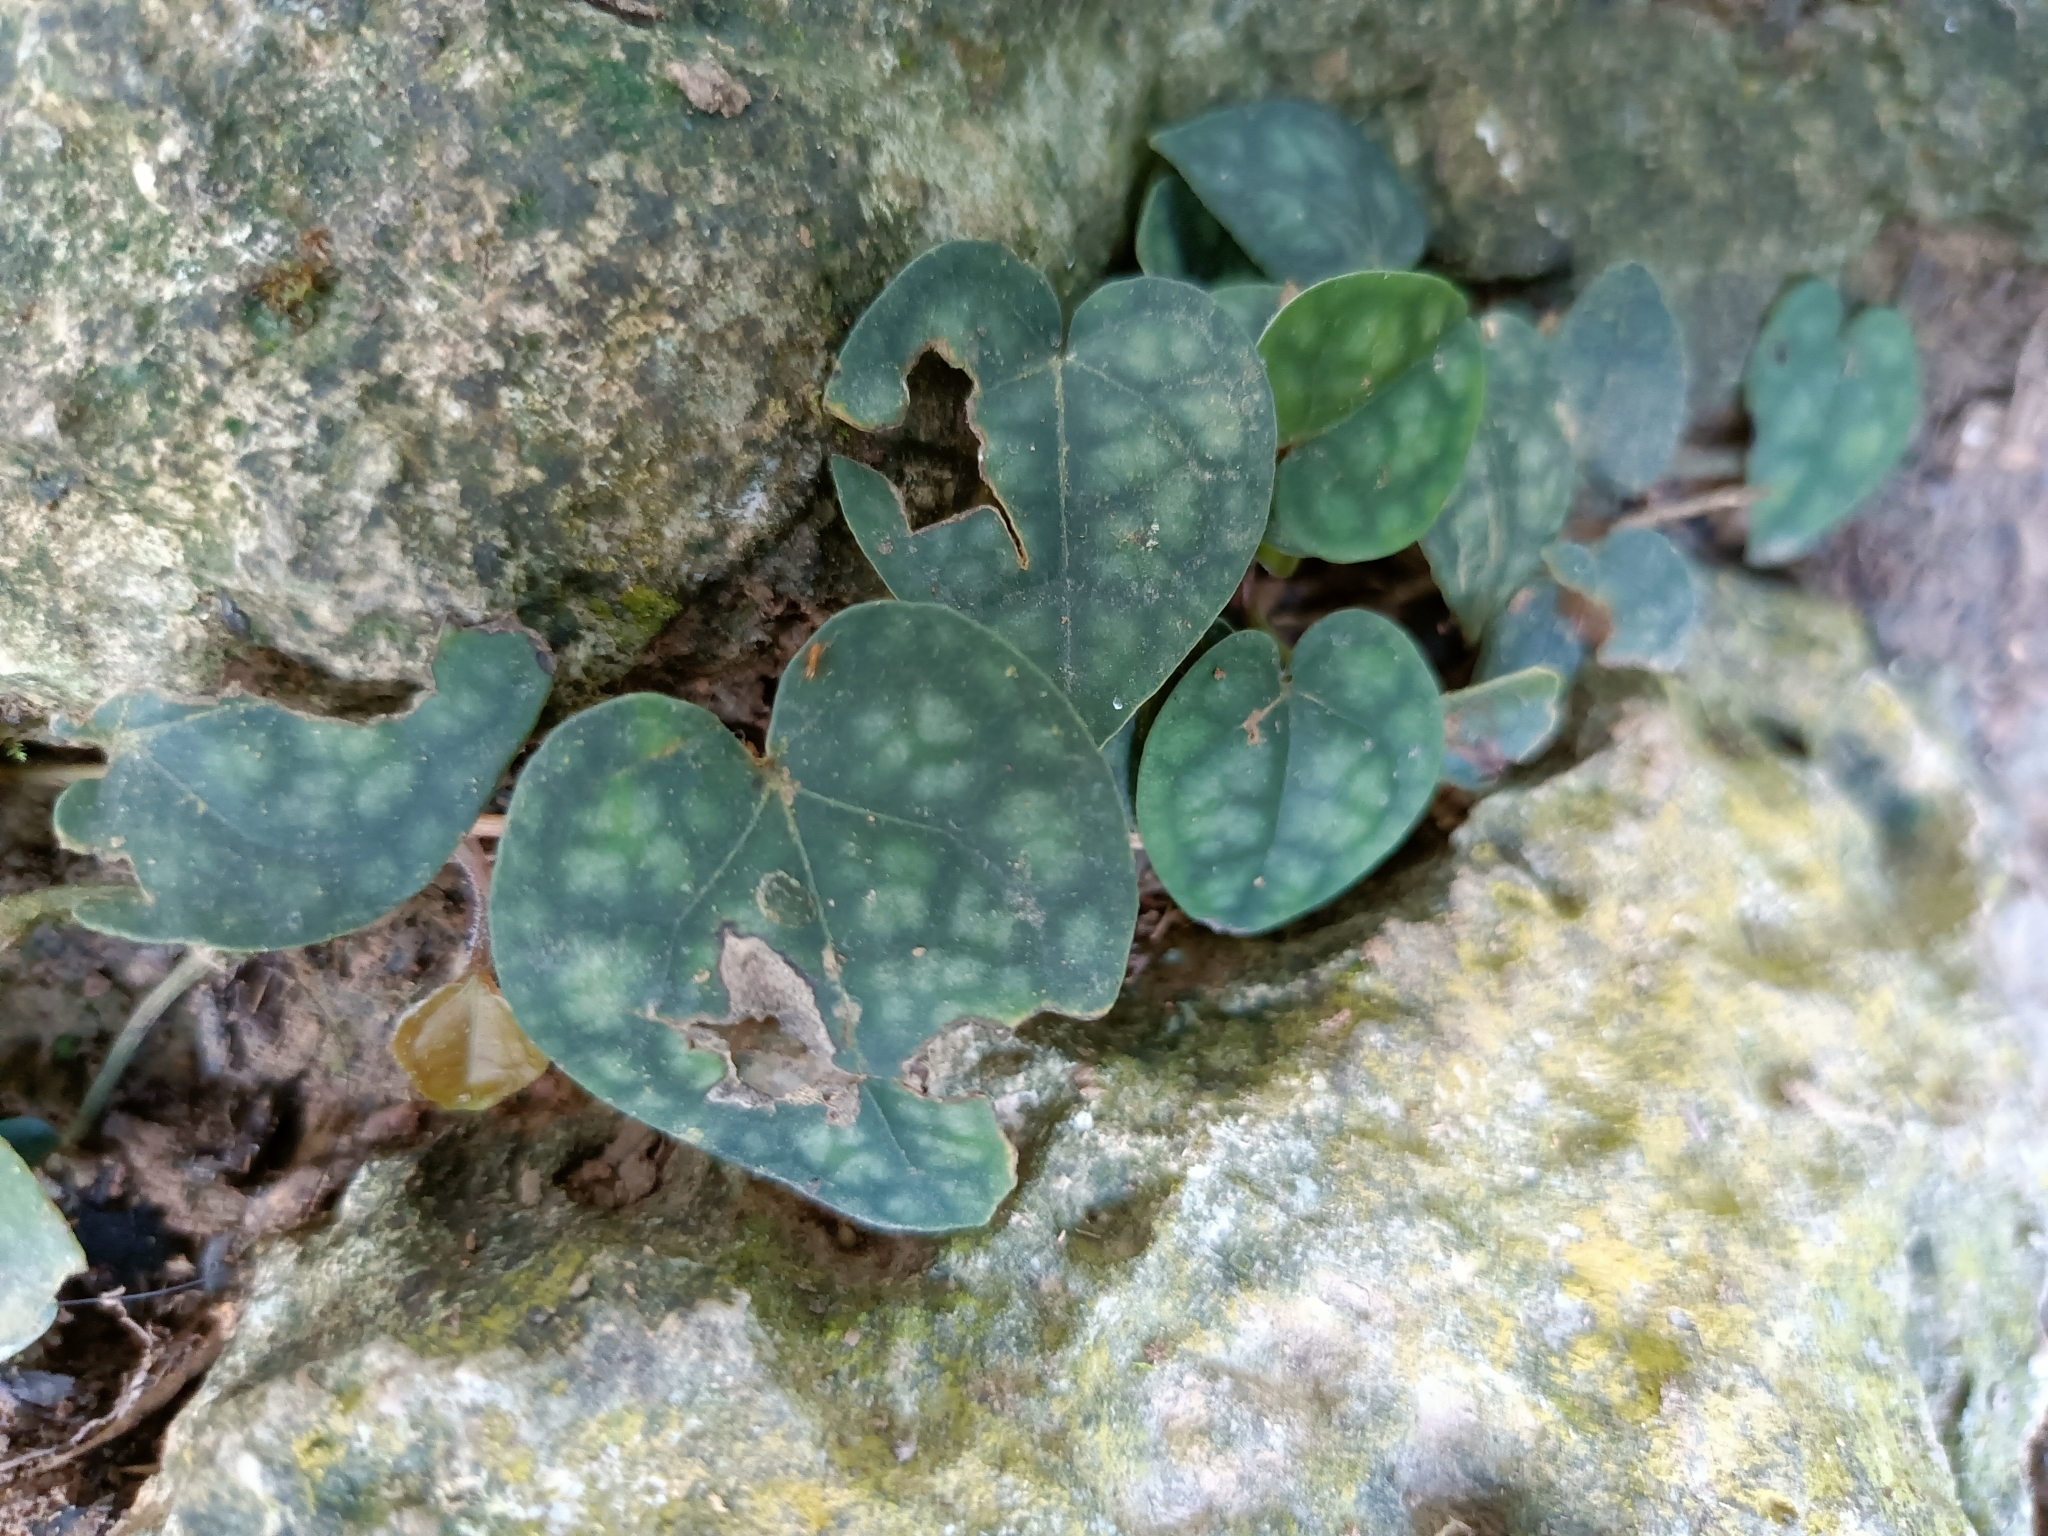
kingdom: Plantae
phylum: Tracheophyta
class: Magnoliopsida
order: Piperales
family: Piperaceae
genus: Piper
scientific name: Piper kadsura
